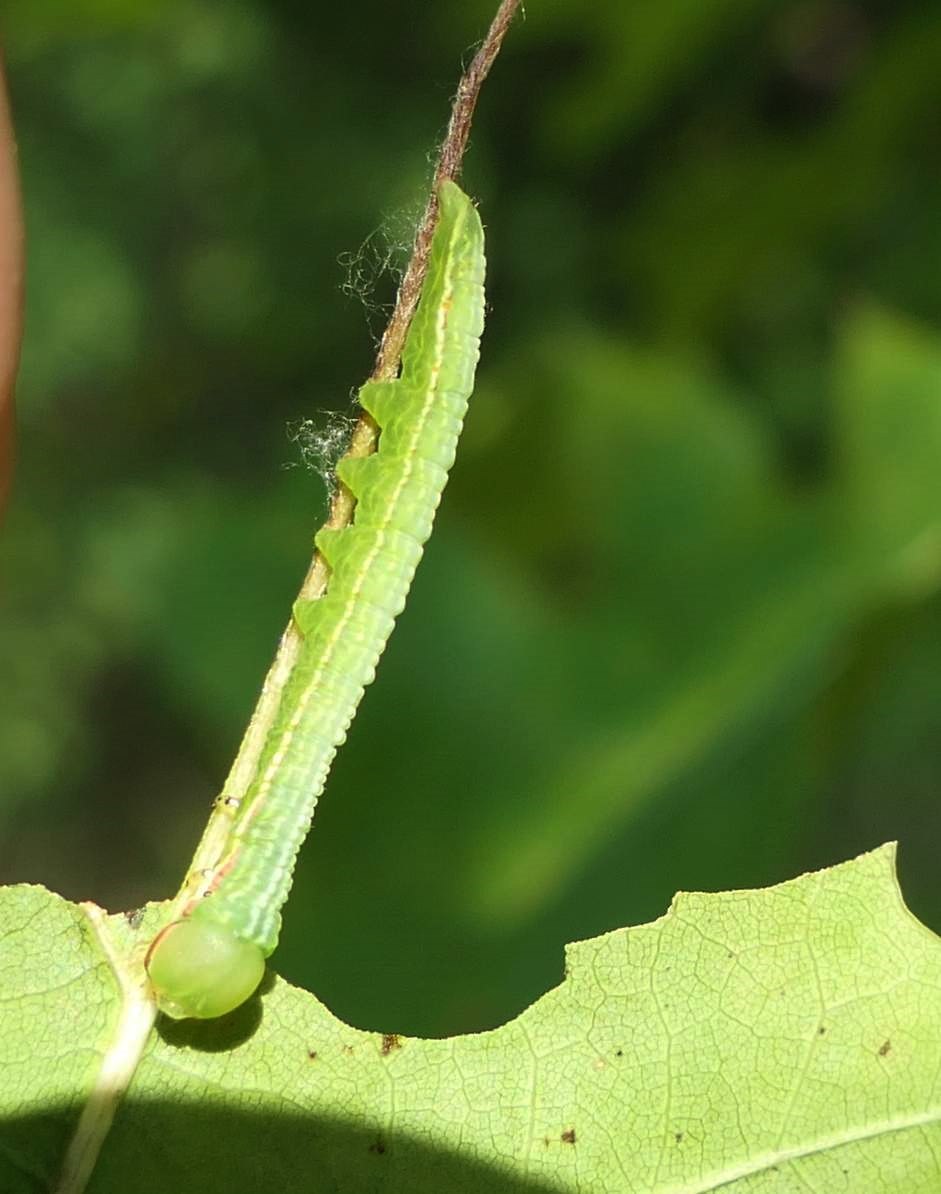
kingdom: Animalia
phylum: Arthropoda
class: Insecta
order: Lepidoptera
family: Notodontidae
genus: Peridea
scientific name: Peridea angulosa
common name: Angulose prominent
